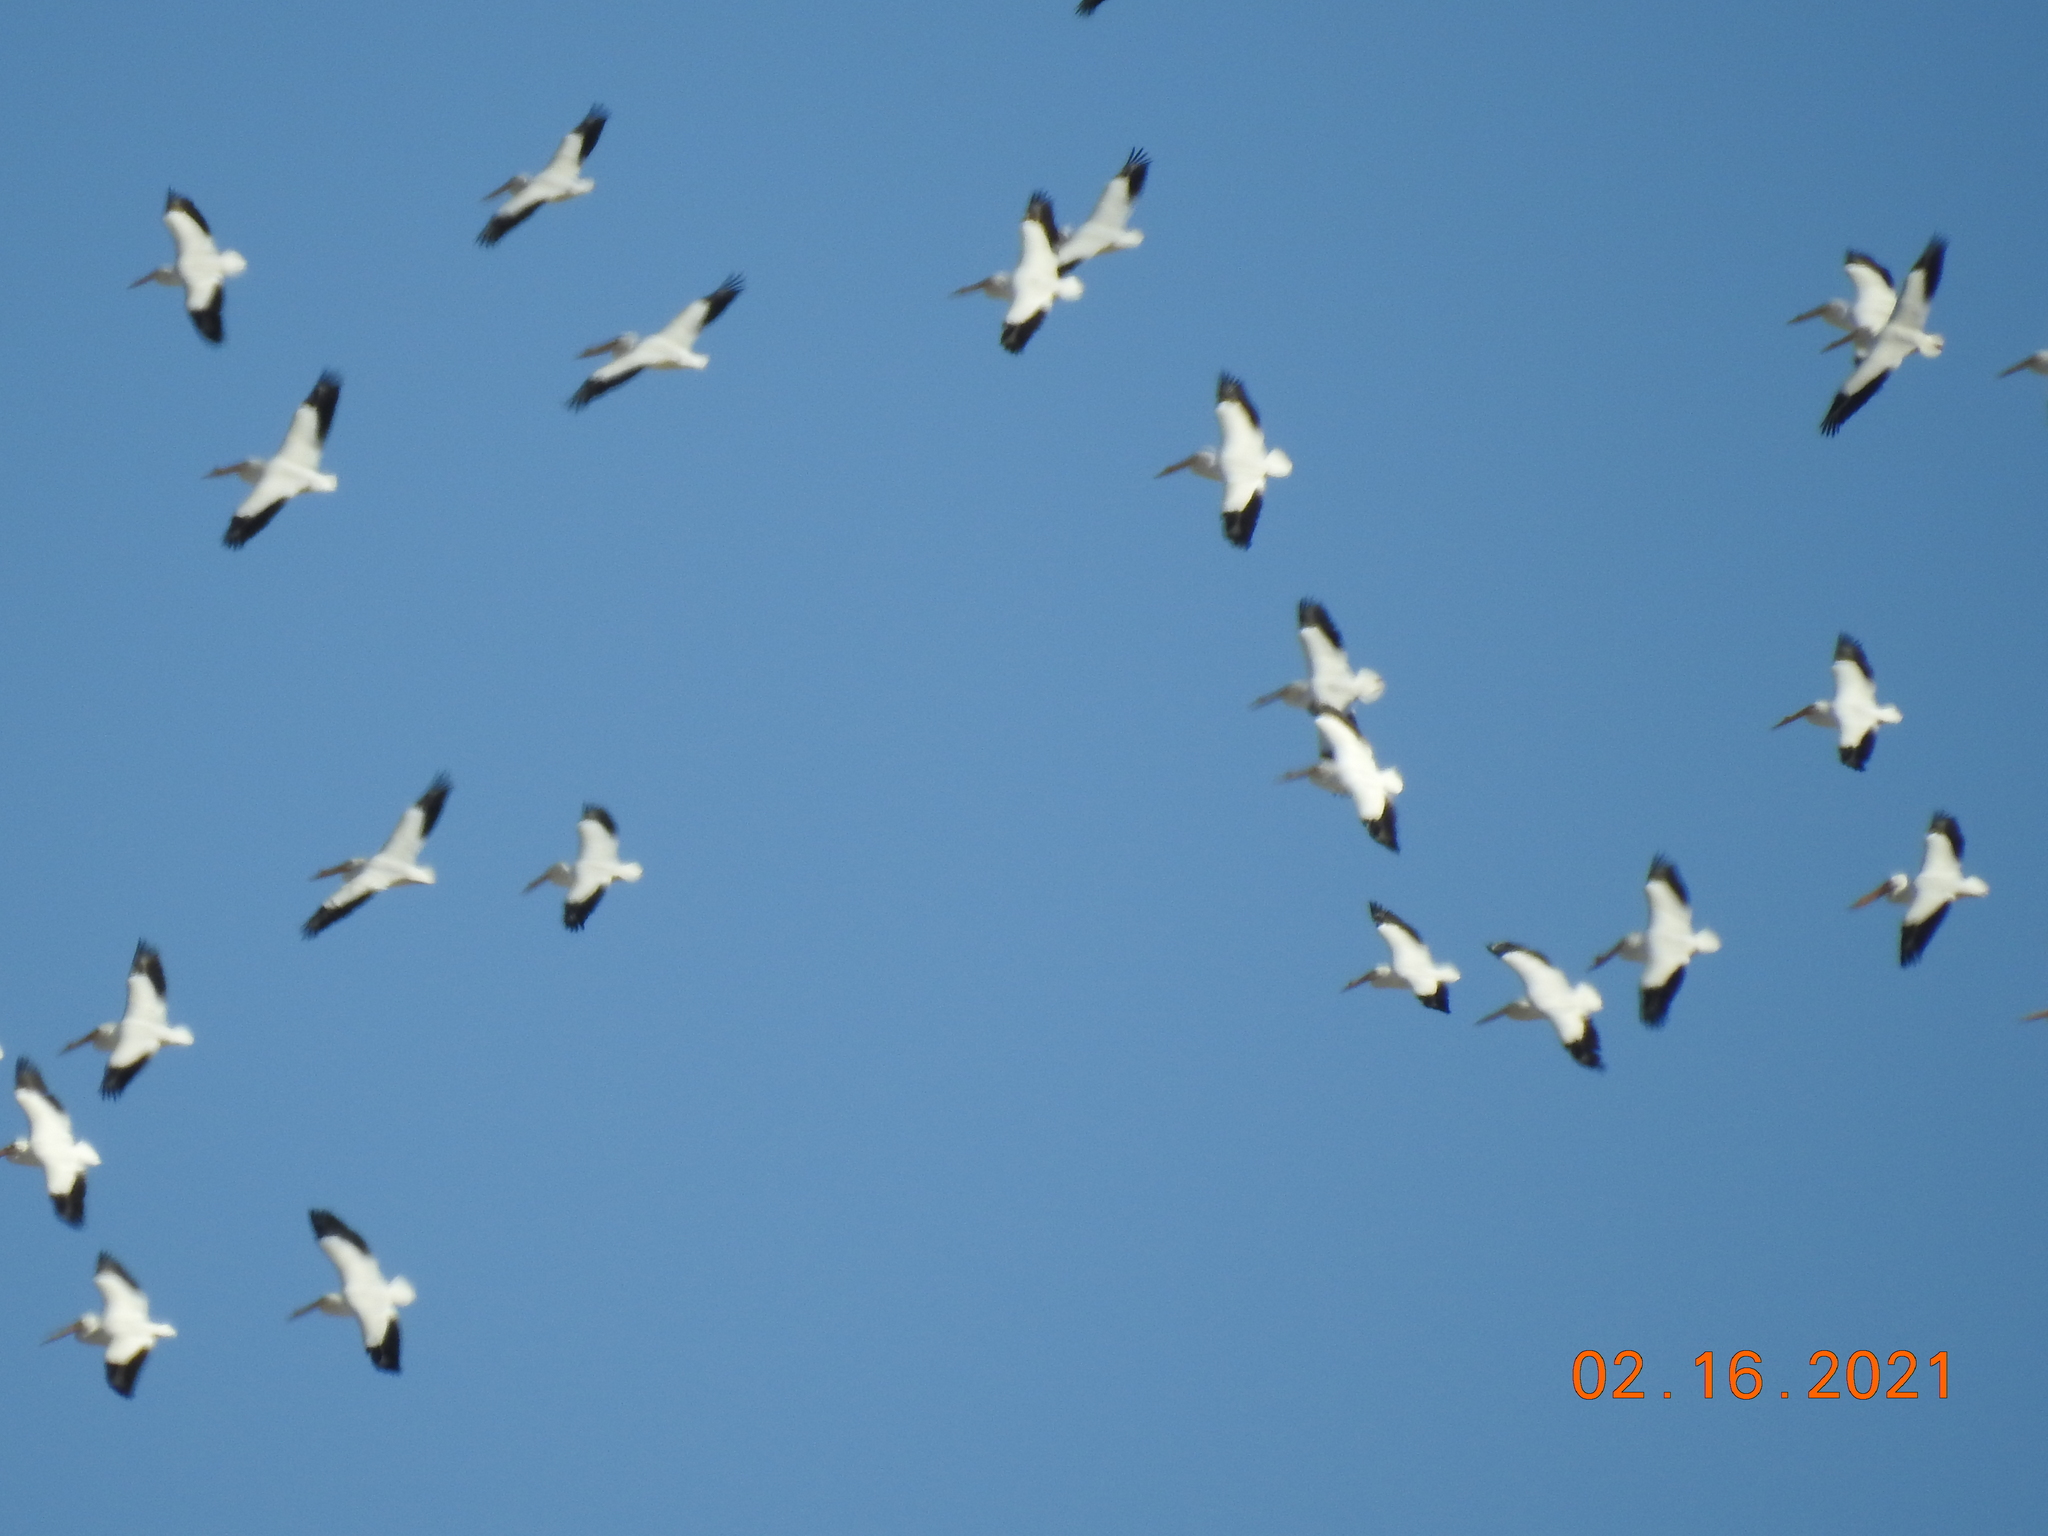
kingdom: Animalia
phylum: Chordata
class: Aves
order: Pelecaniformes
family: Pelecanidae
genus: Pelecanus
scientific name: Pelecanus erythrorhynchos
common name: American white pelican
